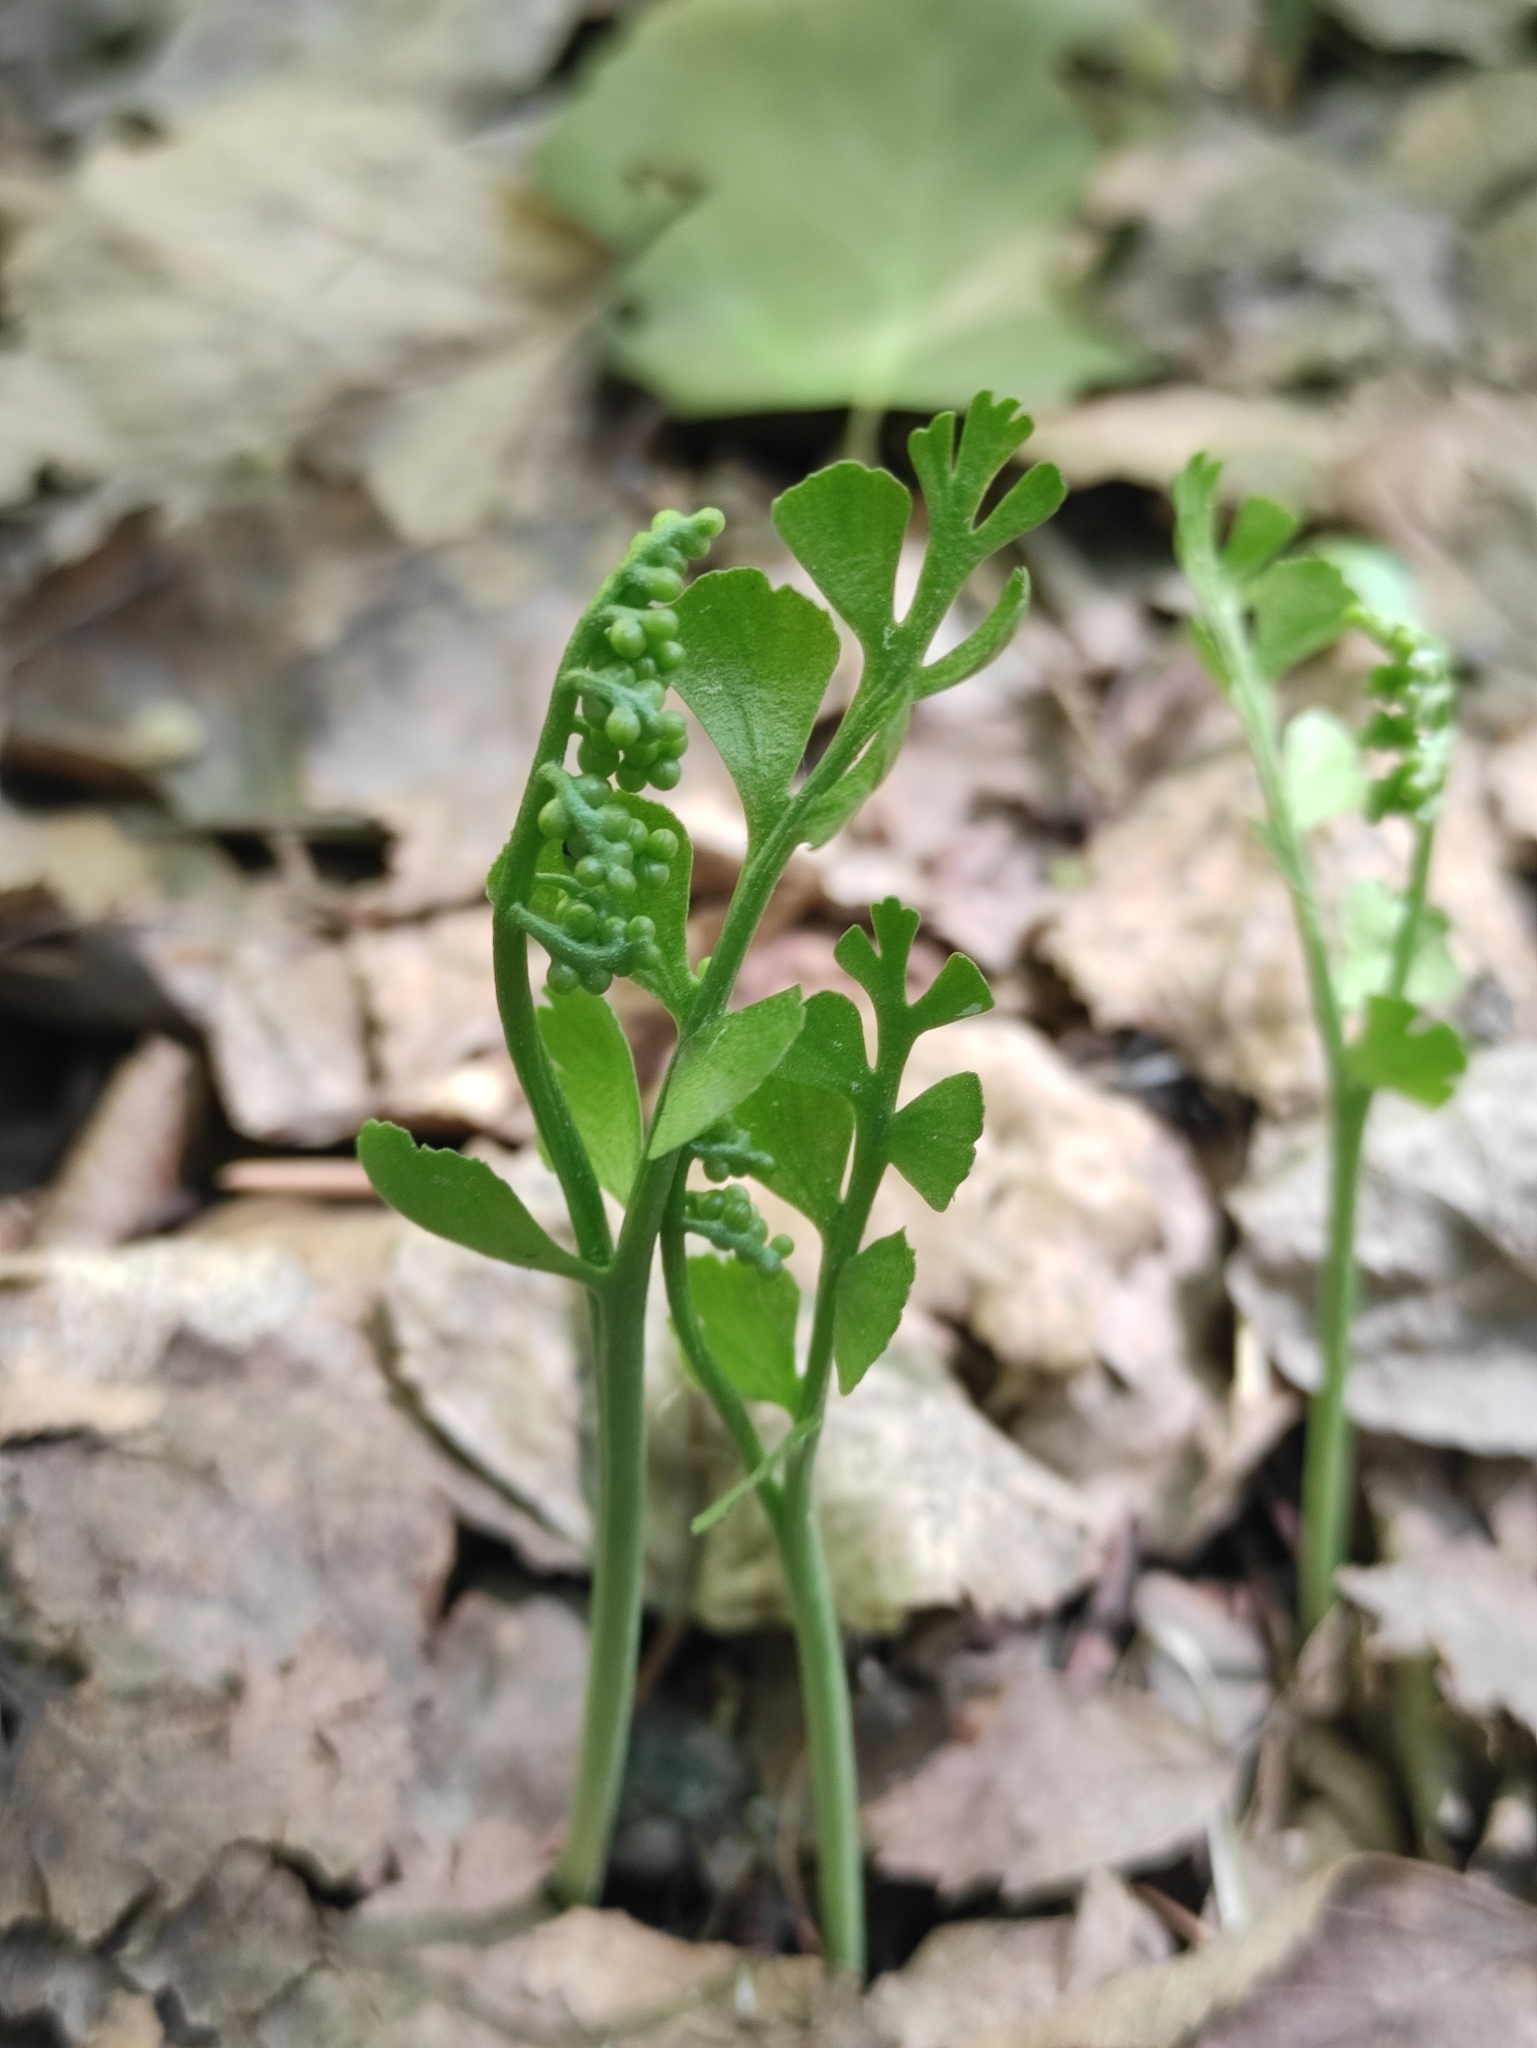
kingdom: Plantae
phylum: Tracheophyta
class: Polypodiopsida
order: Ophioglossales
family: Ophioglossaceae
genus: Botrychium
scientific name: Botrychium lunaria
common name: Moonwort
